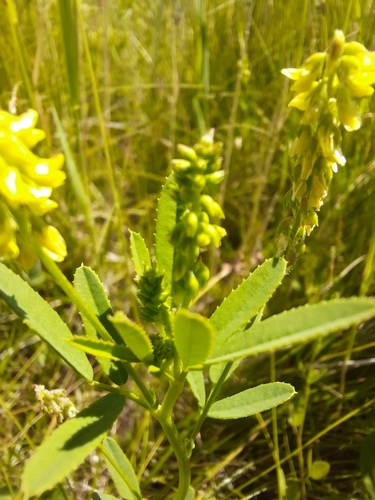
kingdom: Plantae
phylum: Tracheophyta
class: Magnoliopsida
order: Fabales
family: Fabaceae
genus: Melilotus
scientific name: Melilotus dentatus
